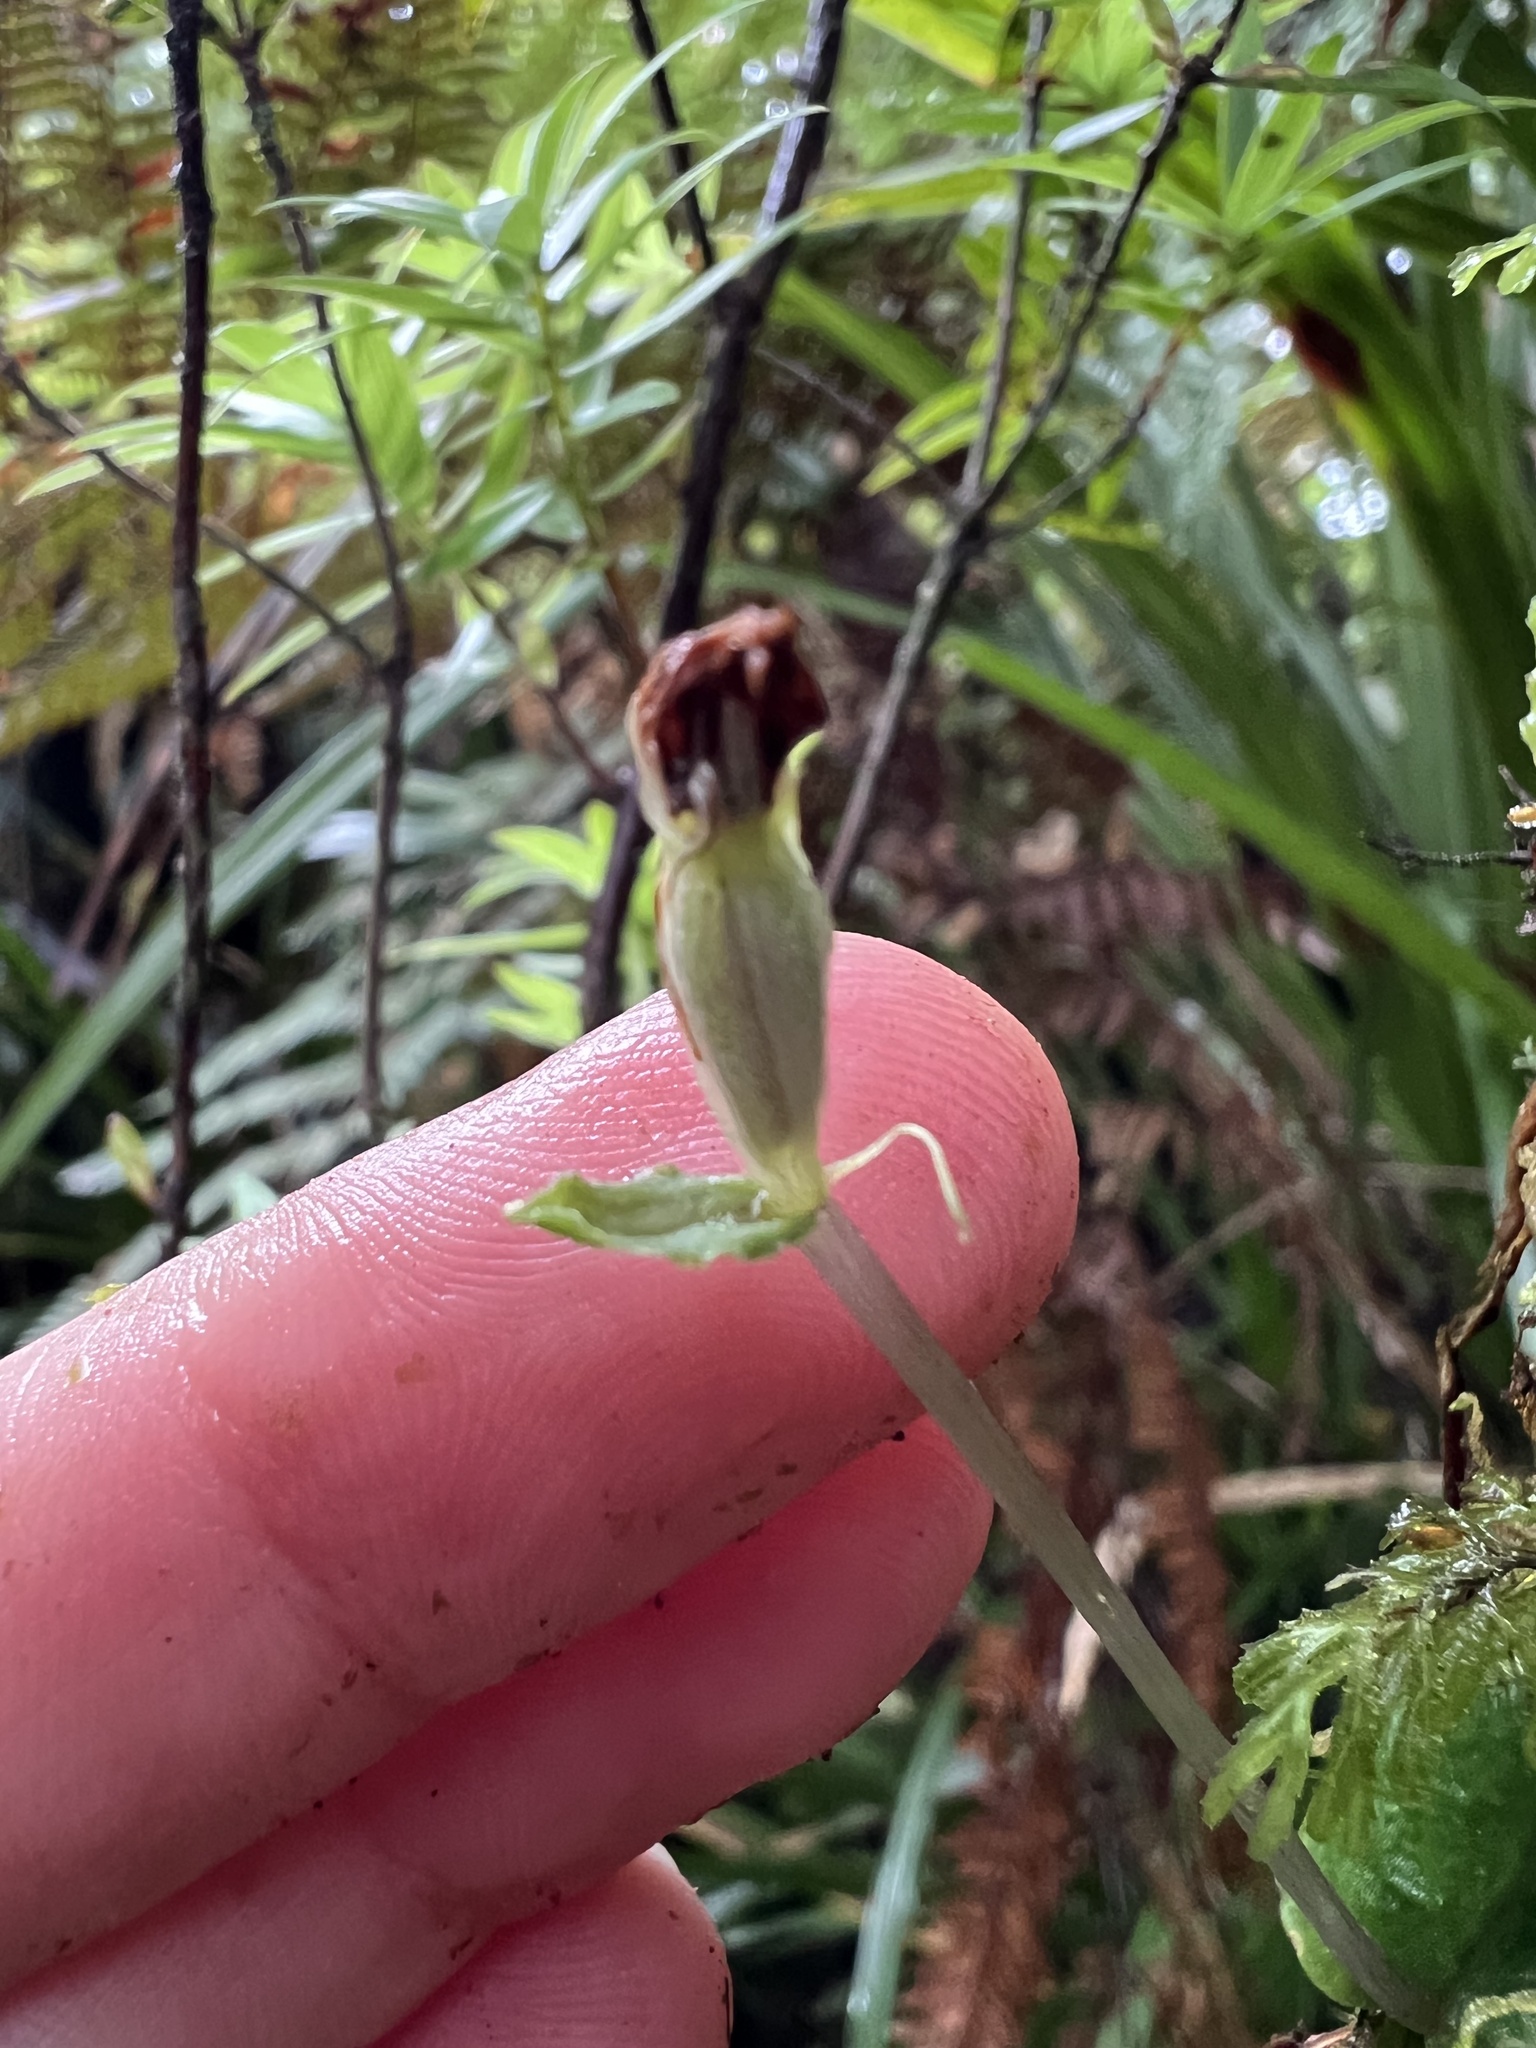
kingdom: Plantae
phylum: Tracheophyta
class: Liliopsida
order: Asparagales
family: Orchidaceae
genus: Corybas
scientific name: Corybas oblongus
